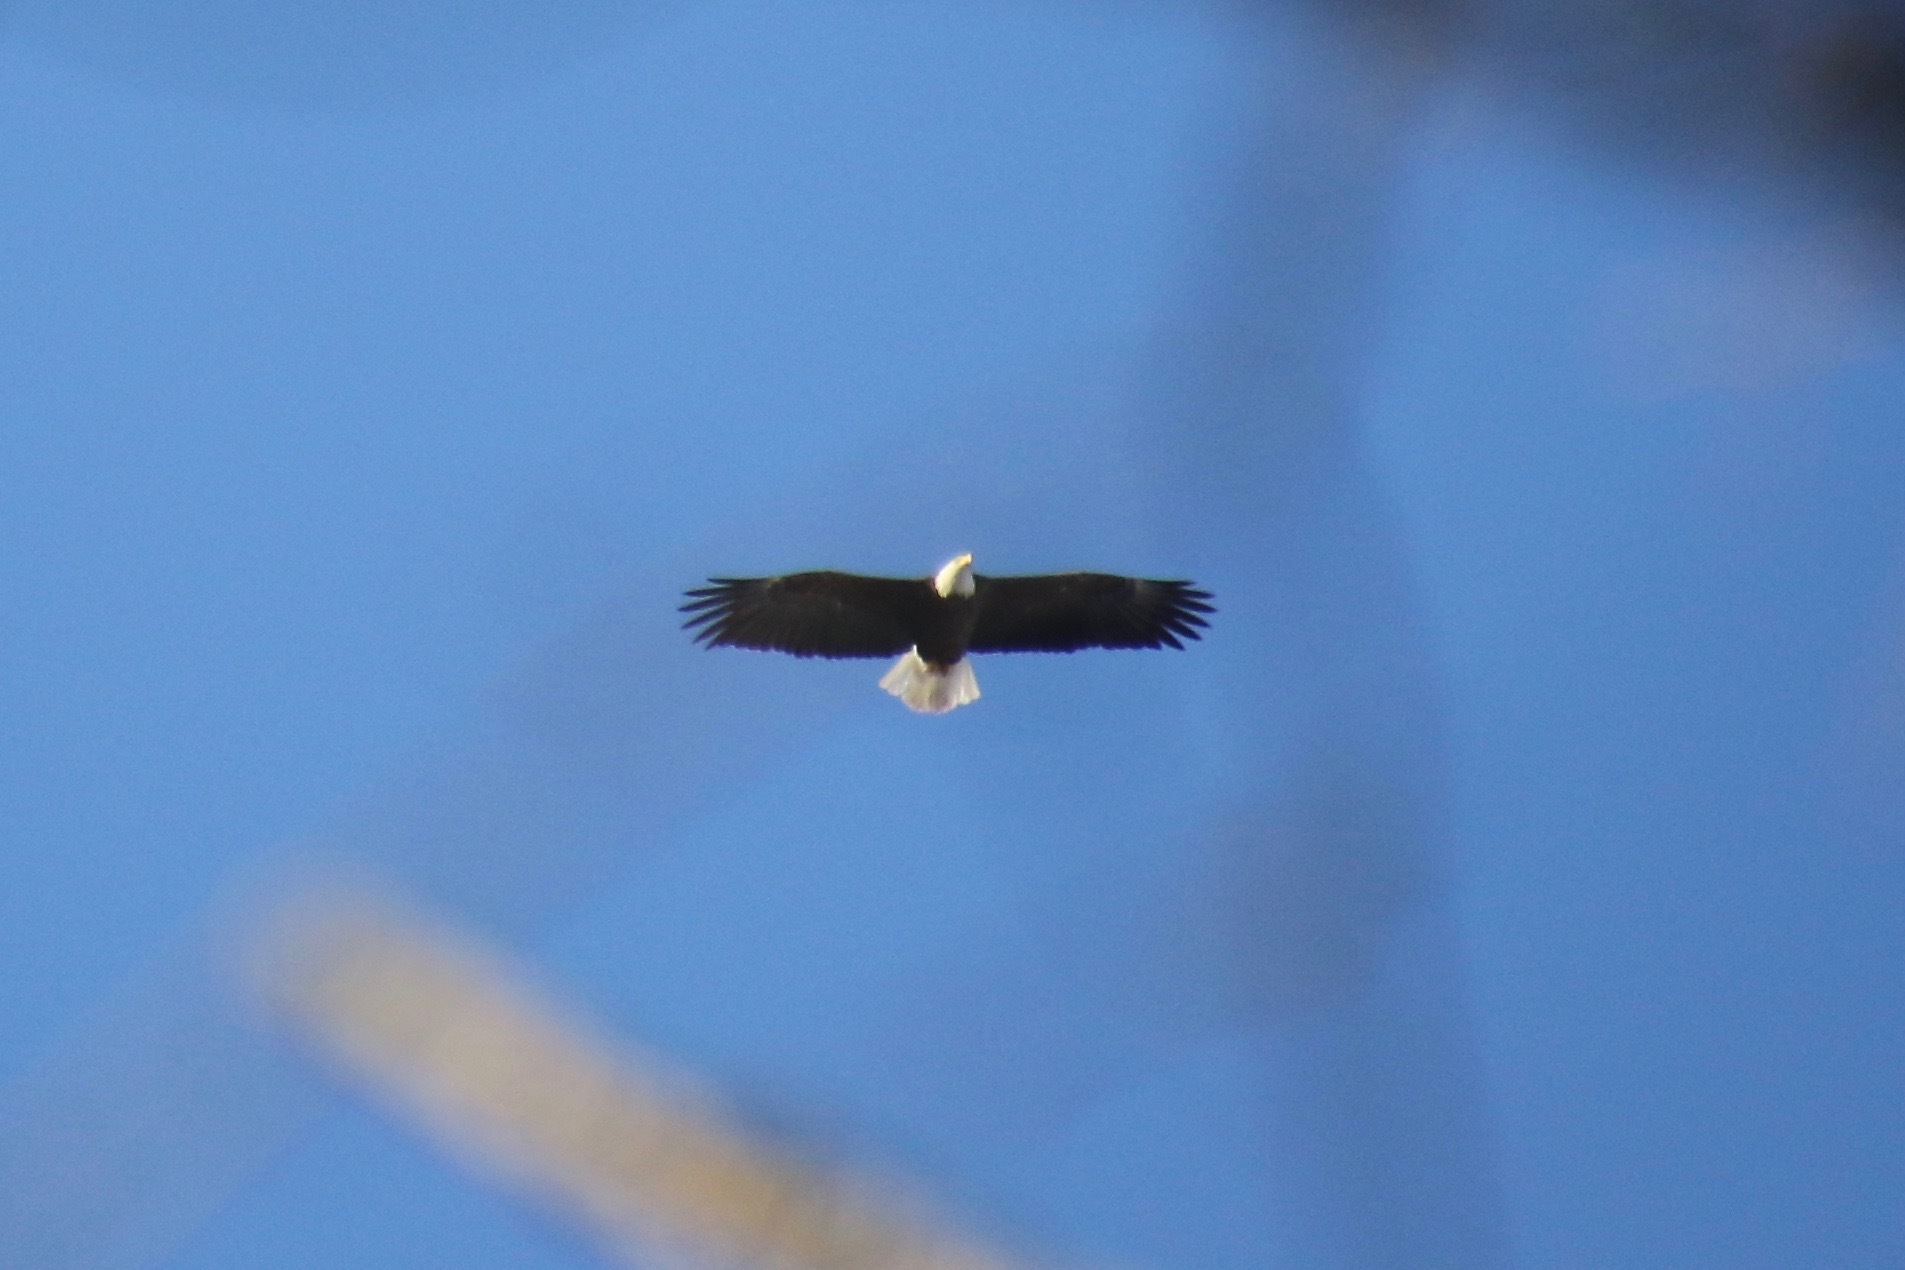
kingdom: Animalia
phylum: Chordata
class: Aves
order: Accipitriformes
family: Accipitridae
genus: Haliaeetus
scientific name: Haliaeetus leucocephalus
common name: Bald eagle
